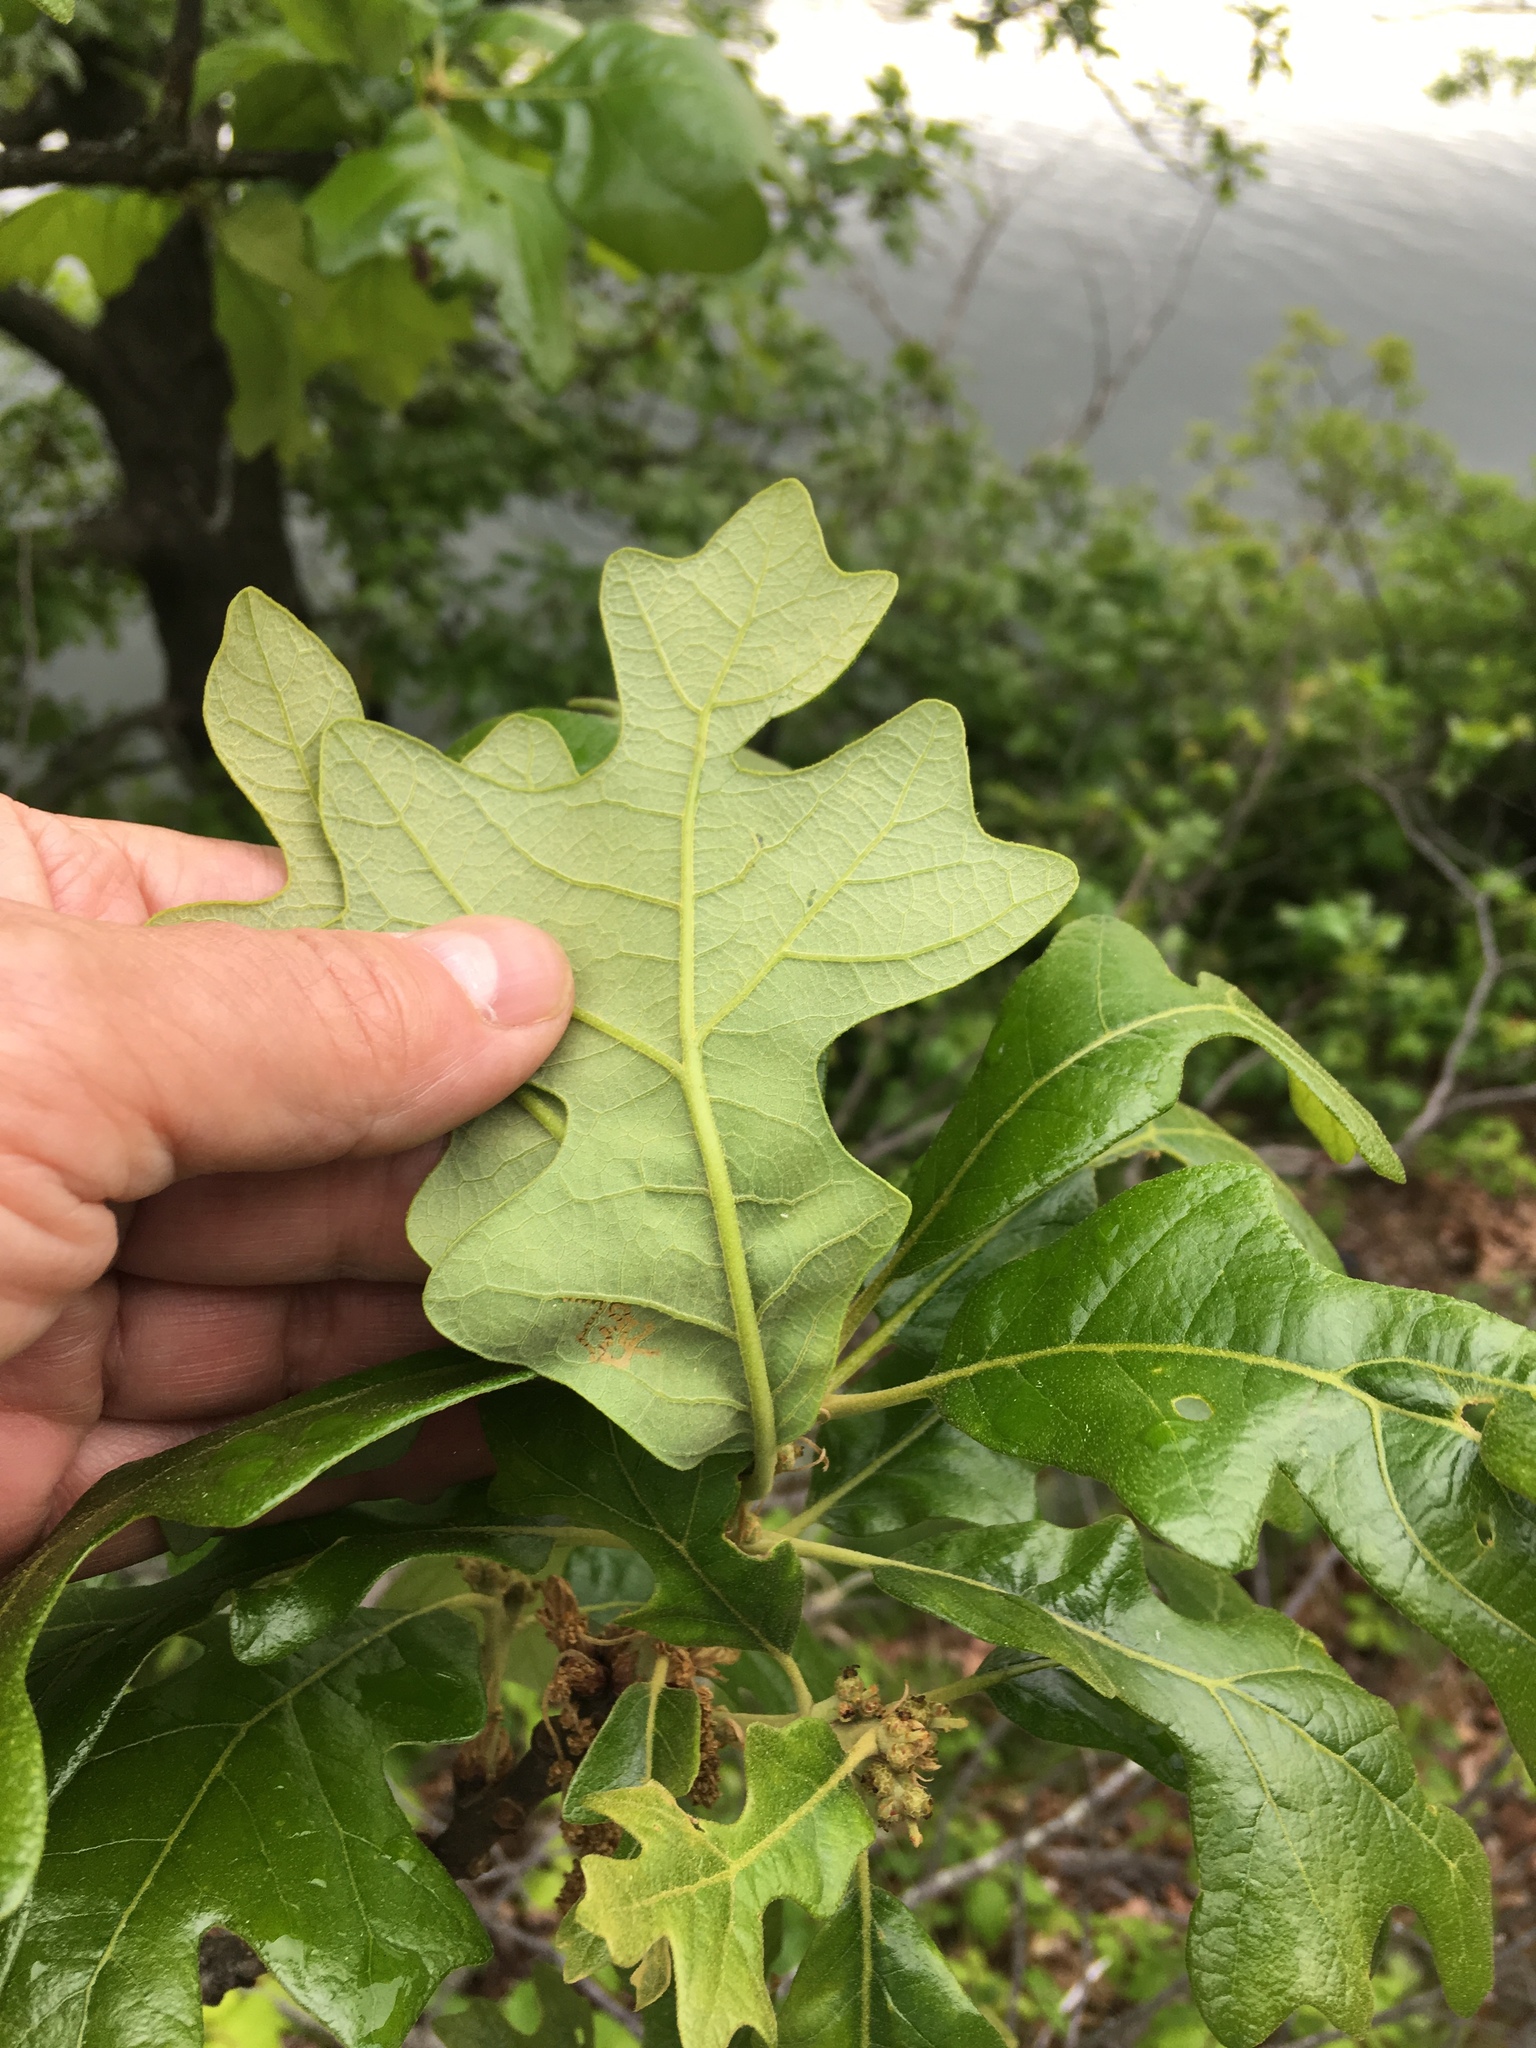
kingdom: Plantae
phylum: Tracheophyta
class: Magnoliopsida
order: Fagales
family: Fagaceae
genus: Quercus
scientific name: Quercus stellata
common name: Post oak
